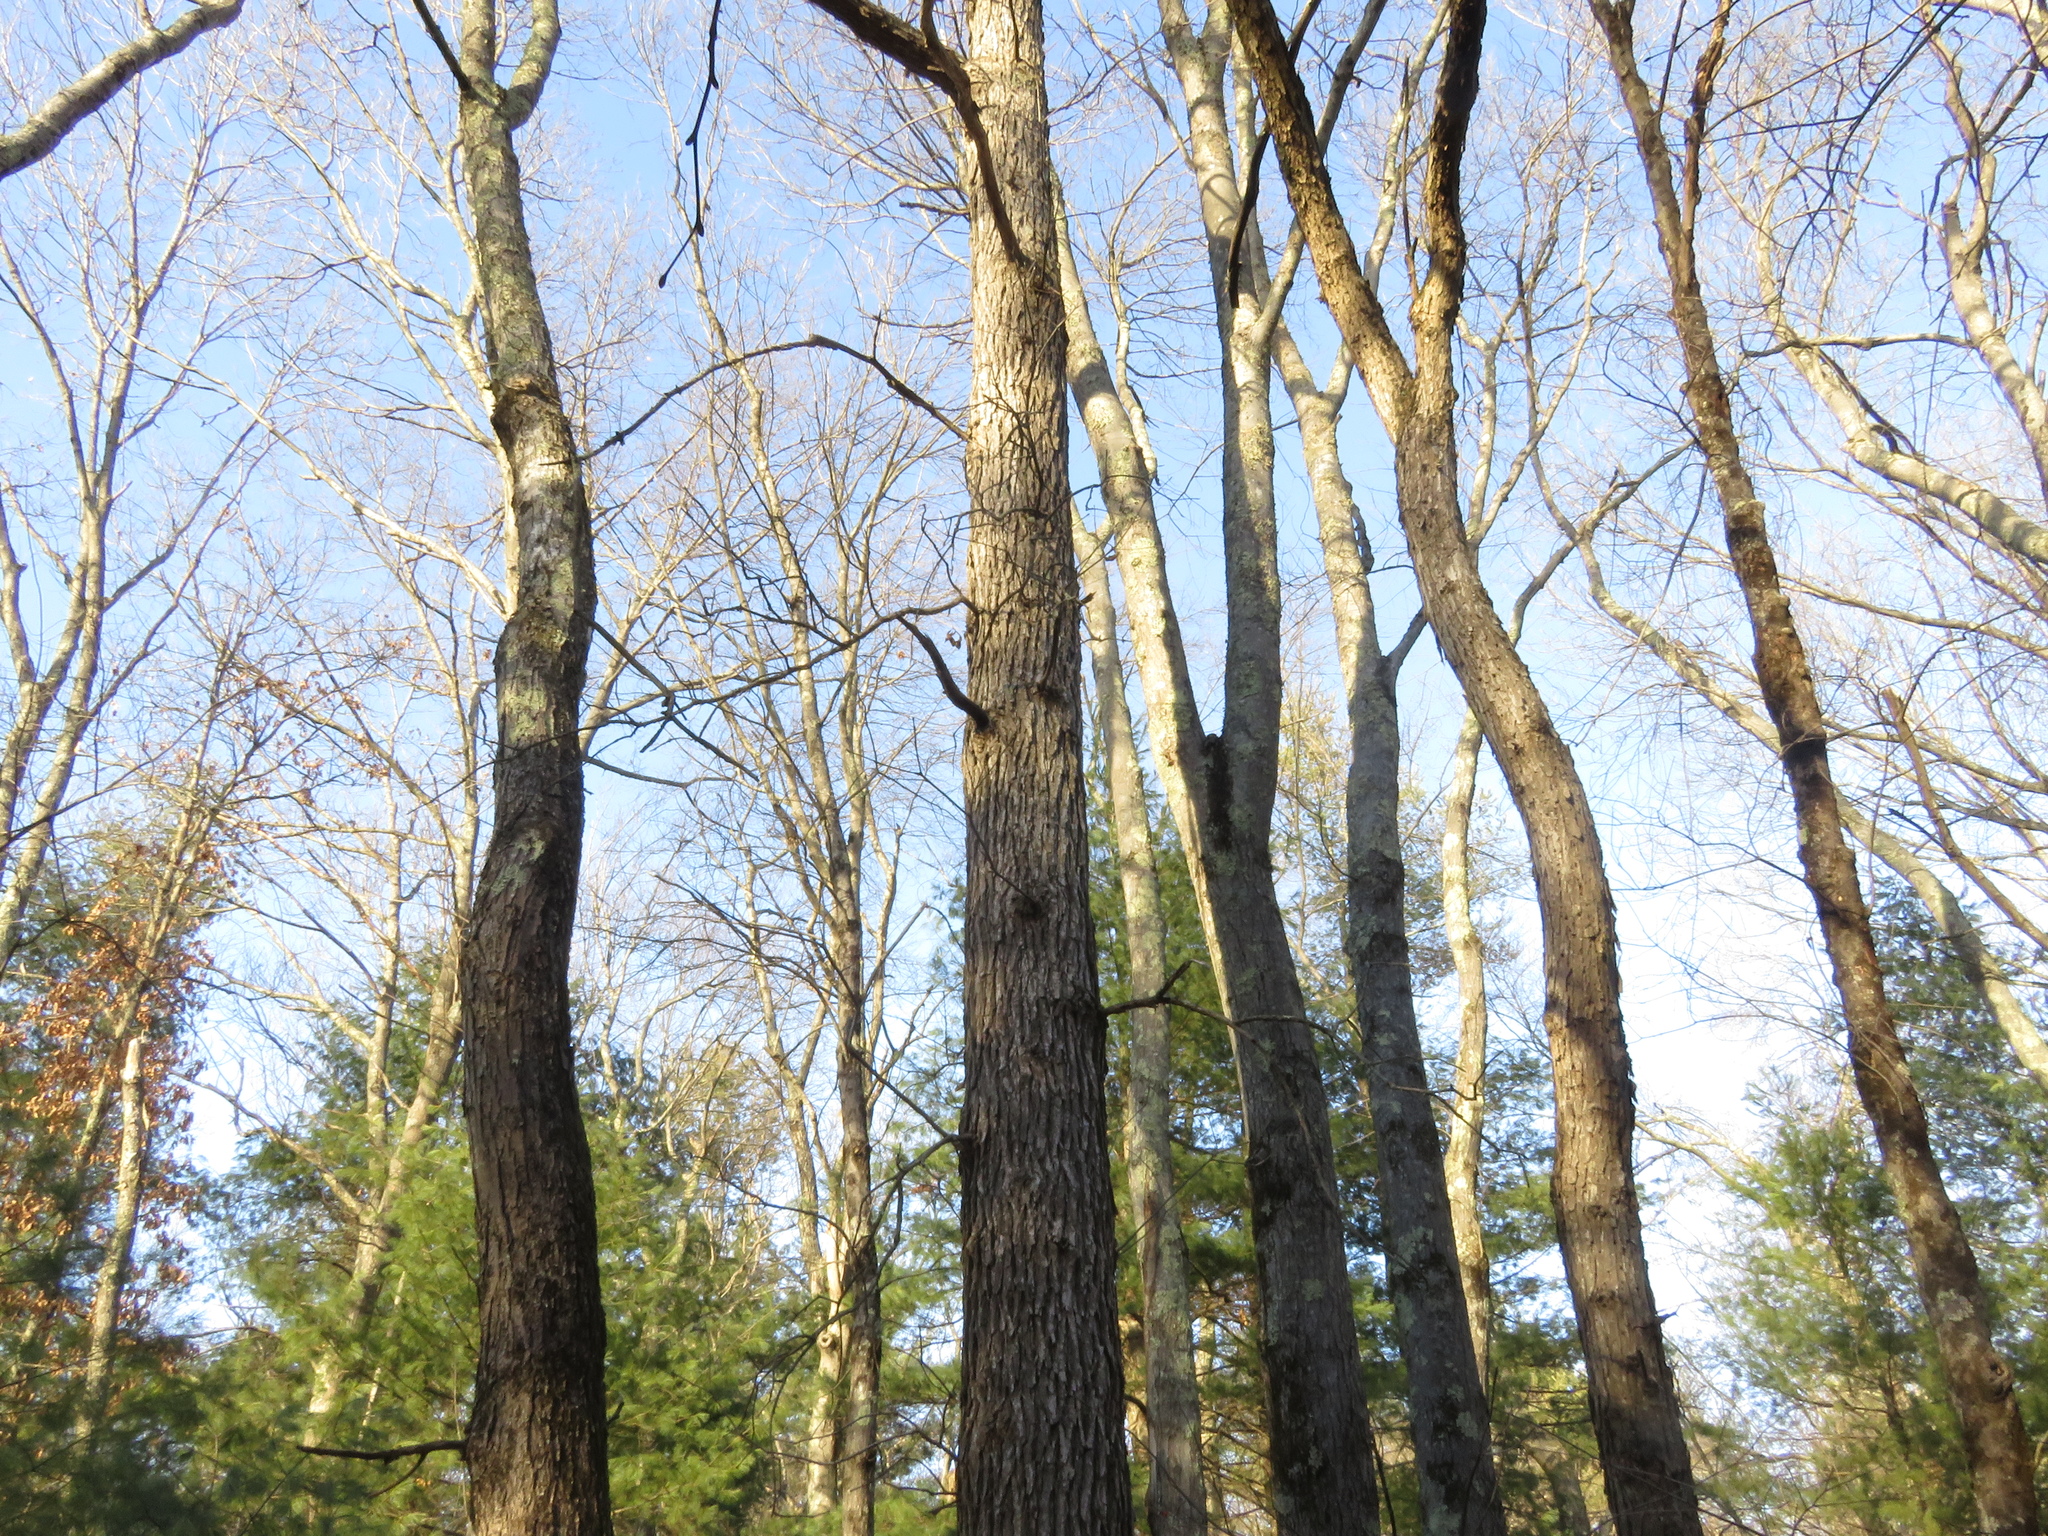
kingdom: Plantae
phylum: Tracheophyta
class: Magnoliopsida
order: Fagales
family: Fagaceae
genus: Quercus
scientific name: Quercus bicolor
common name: Swamp white oak
